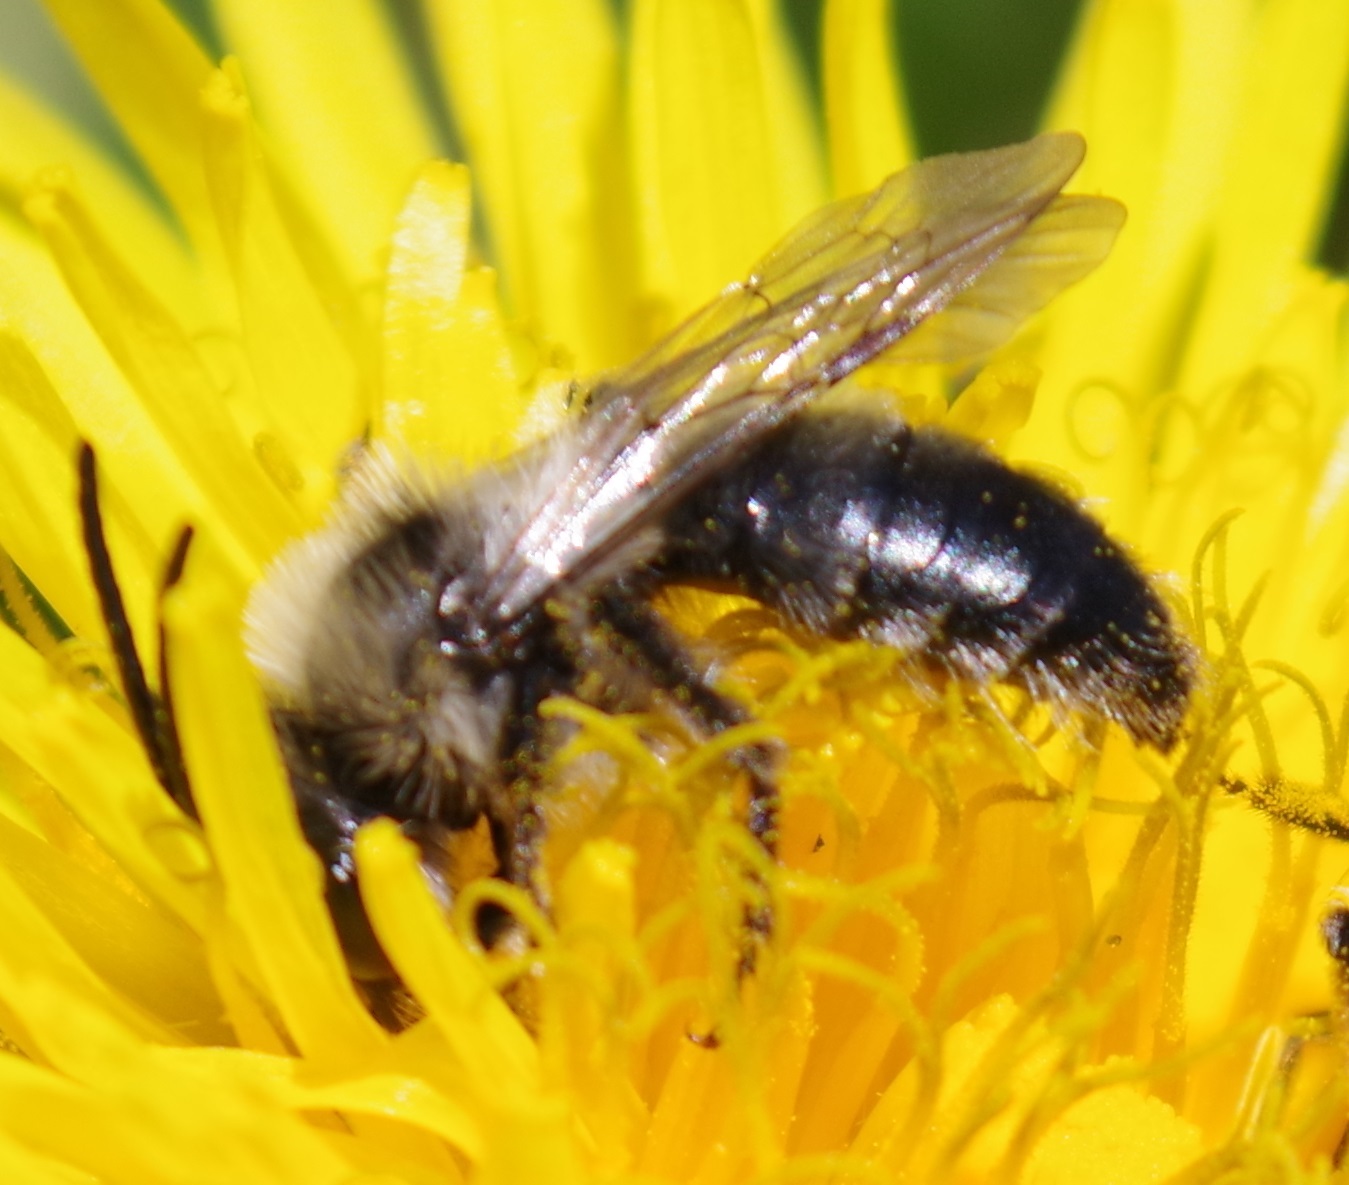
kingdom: Animalia
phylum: Arthropoda
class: Insecta
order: Hymenoptera
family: Andrenidae
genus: Andrena
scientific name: Andrena cineraria
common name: Ashy mining bee
